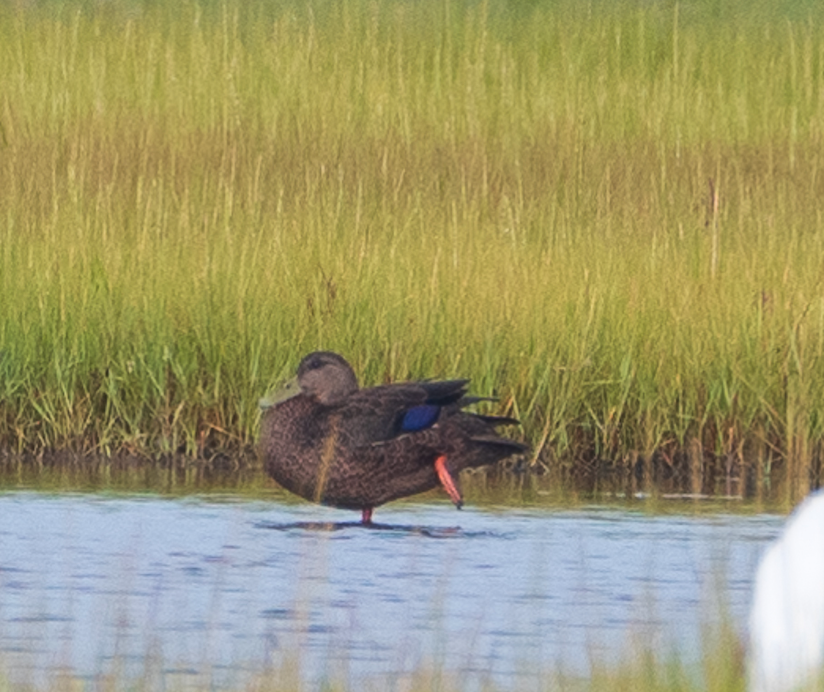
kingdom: Animalia
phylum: Chordata
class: Aves
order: Anseriformes
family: Anatidae
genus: Anas
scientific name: Anas rubripes
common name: American black duck
